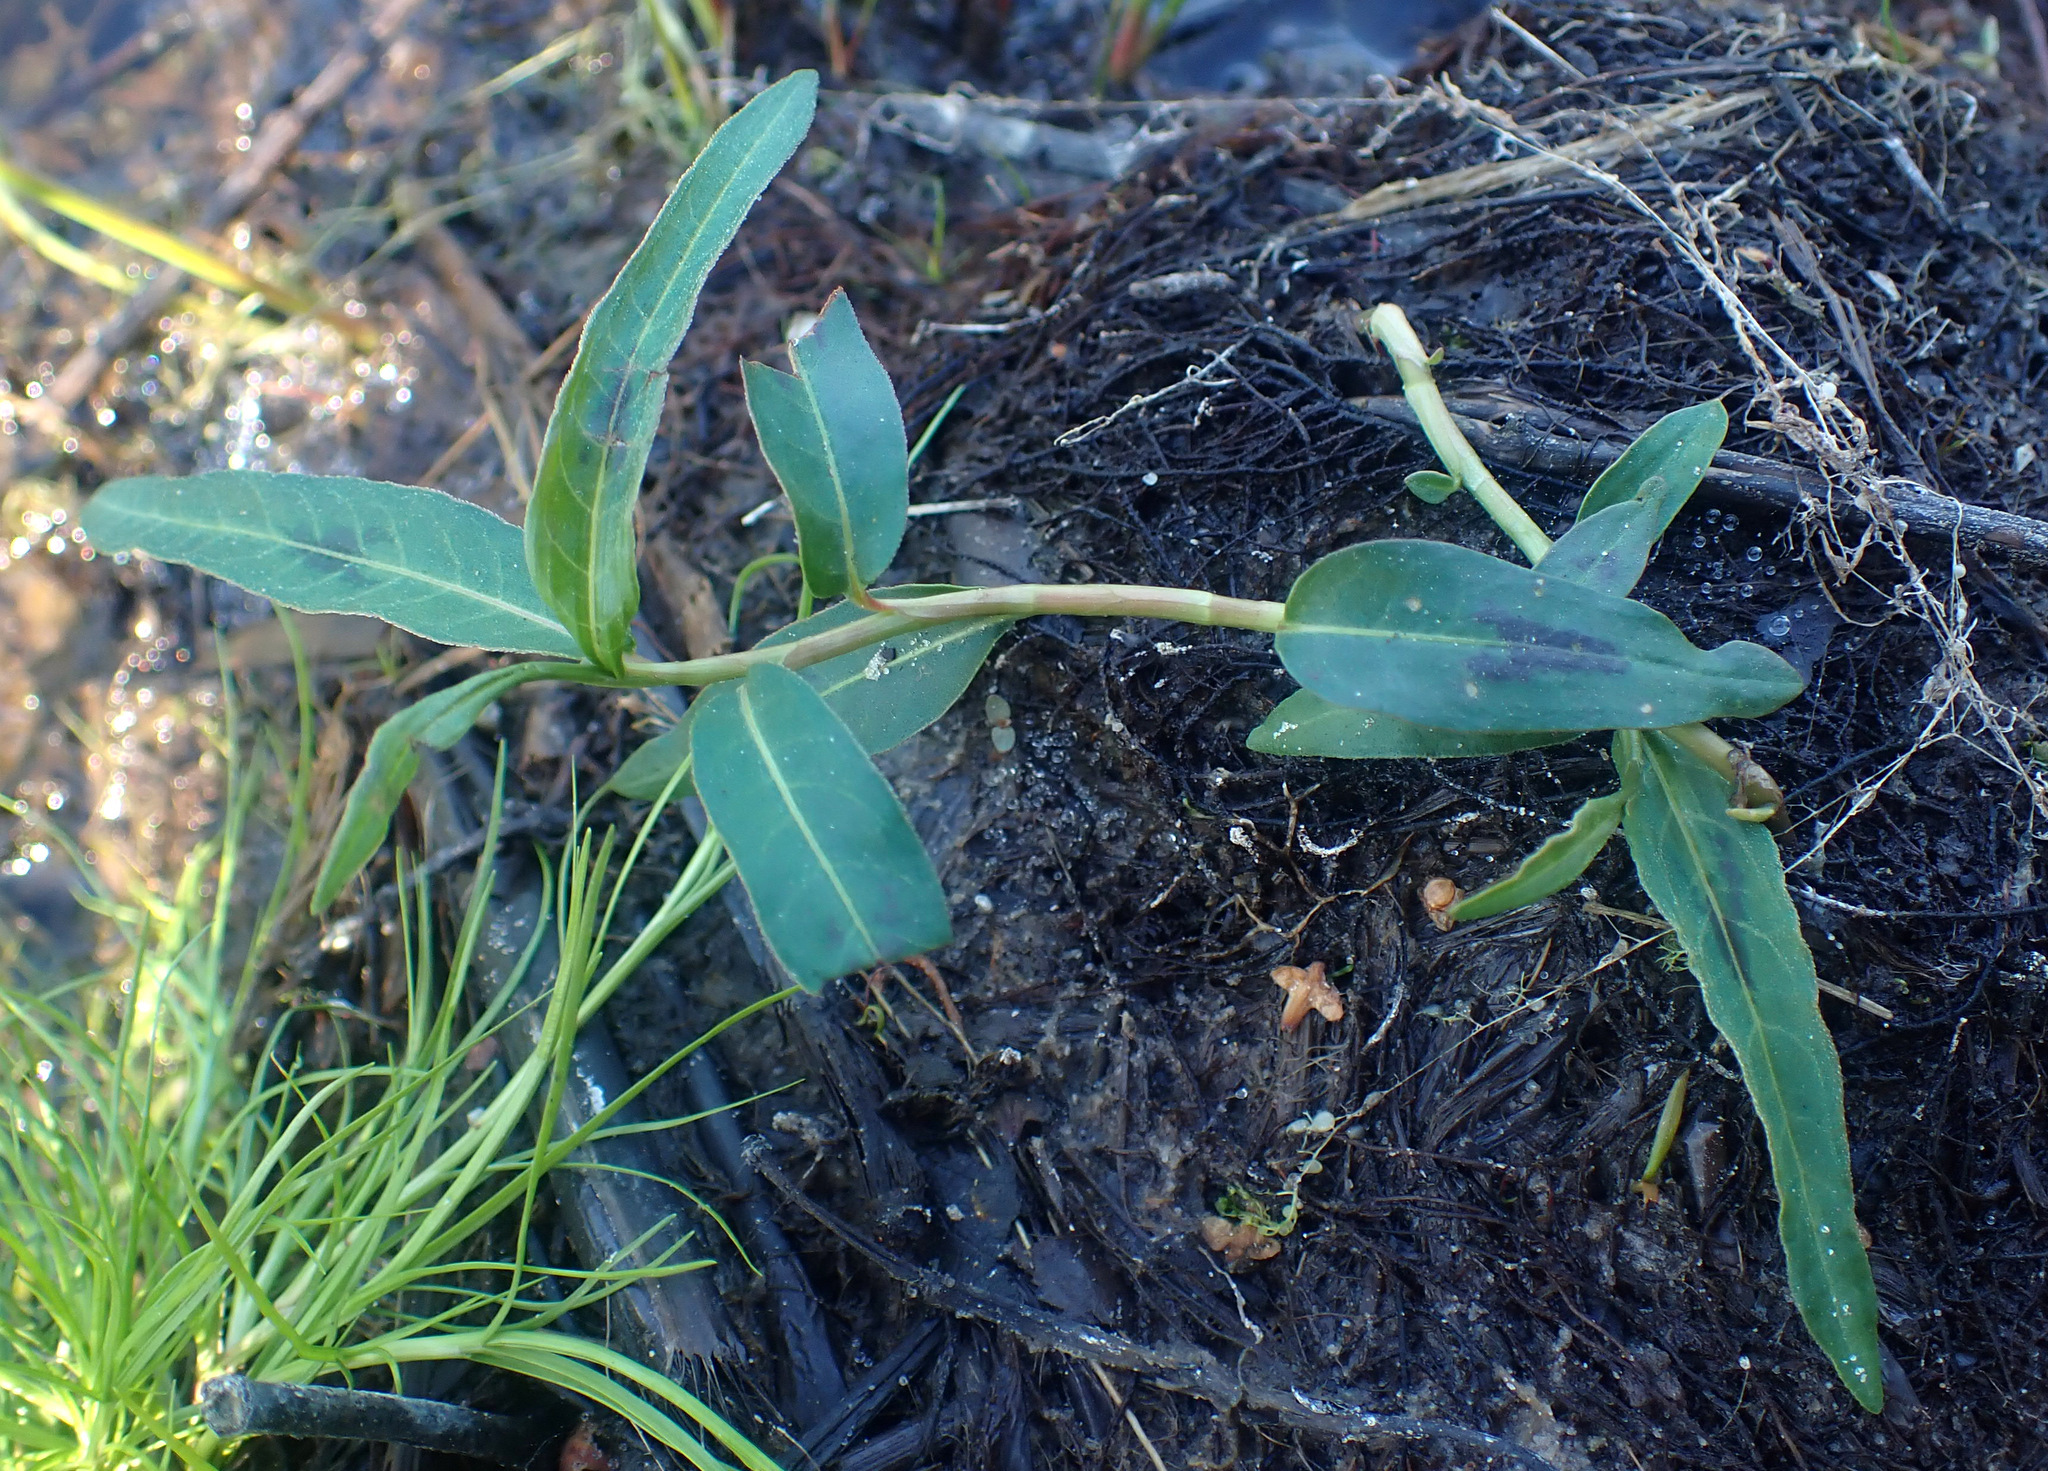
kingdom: Plantae
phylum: Tracheophyta
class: Magnoliopsida
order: Caryophyllales
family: Polygonaceae
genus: Persicaria
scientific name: Persicaria amphibia
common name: Amphibious bistort
